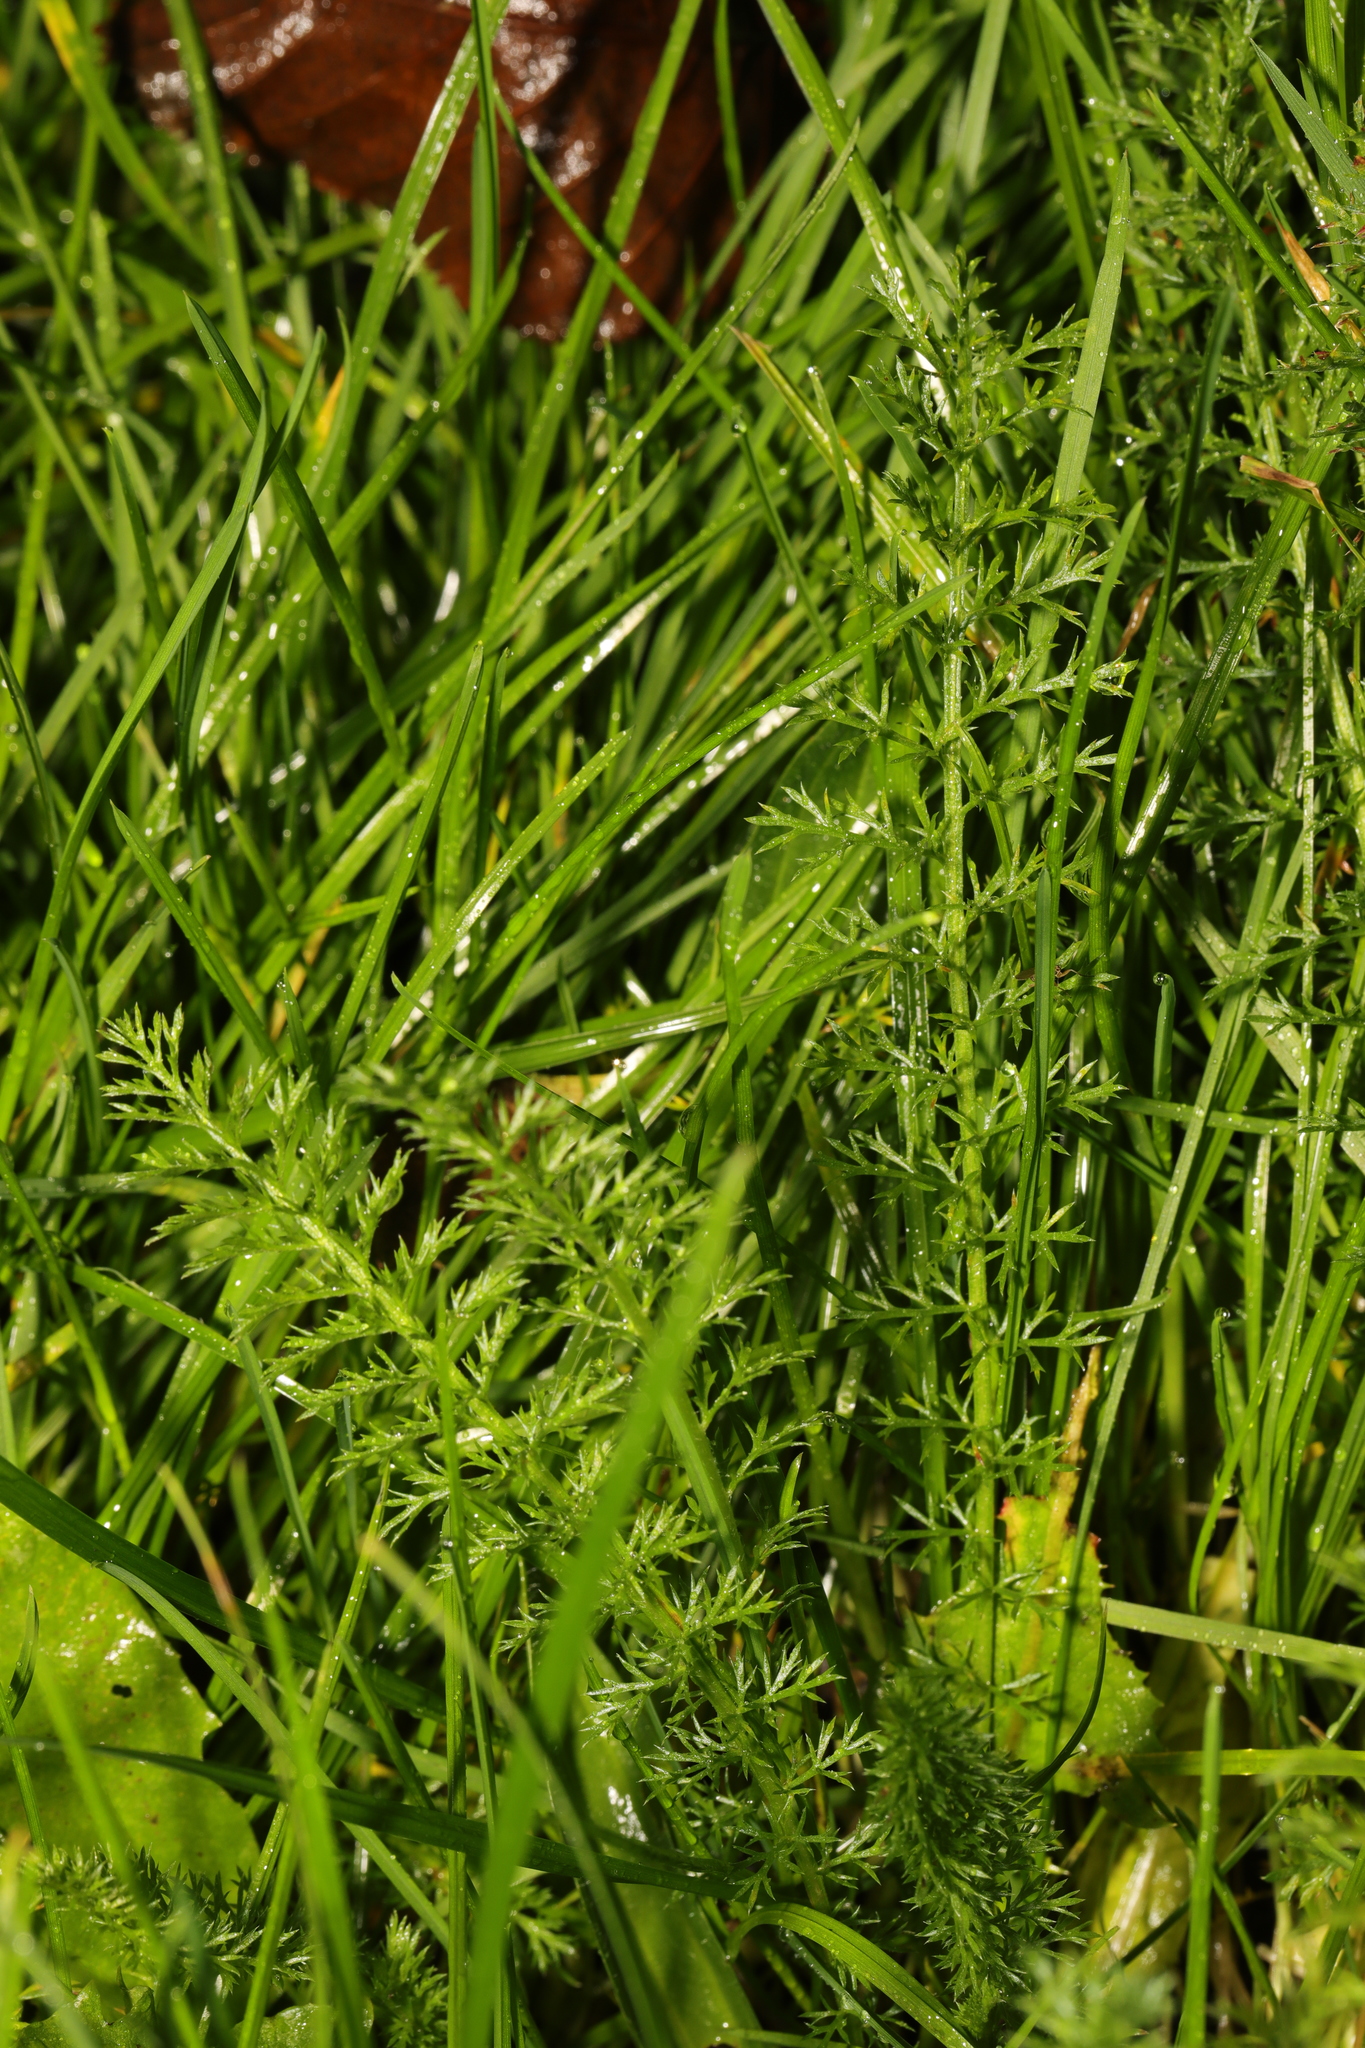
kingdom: Plantae
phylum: Tracheophyta
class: Magnoliopsida
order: Asterales
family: Asteraceae
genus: Achillea
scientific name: Achillea millefolium
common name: Yarrow
